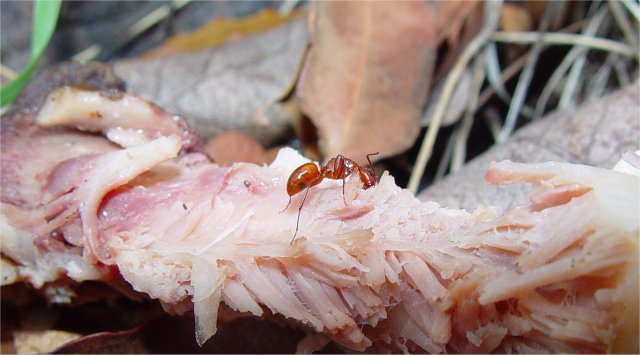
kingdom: Animalia
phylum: Arthropoda
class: Insecta
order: Hymenoptera
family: Formicidae
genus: Camponotus
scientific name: Camponotus schaefferi
